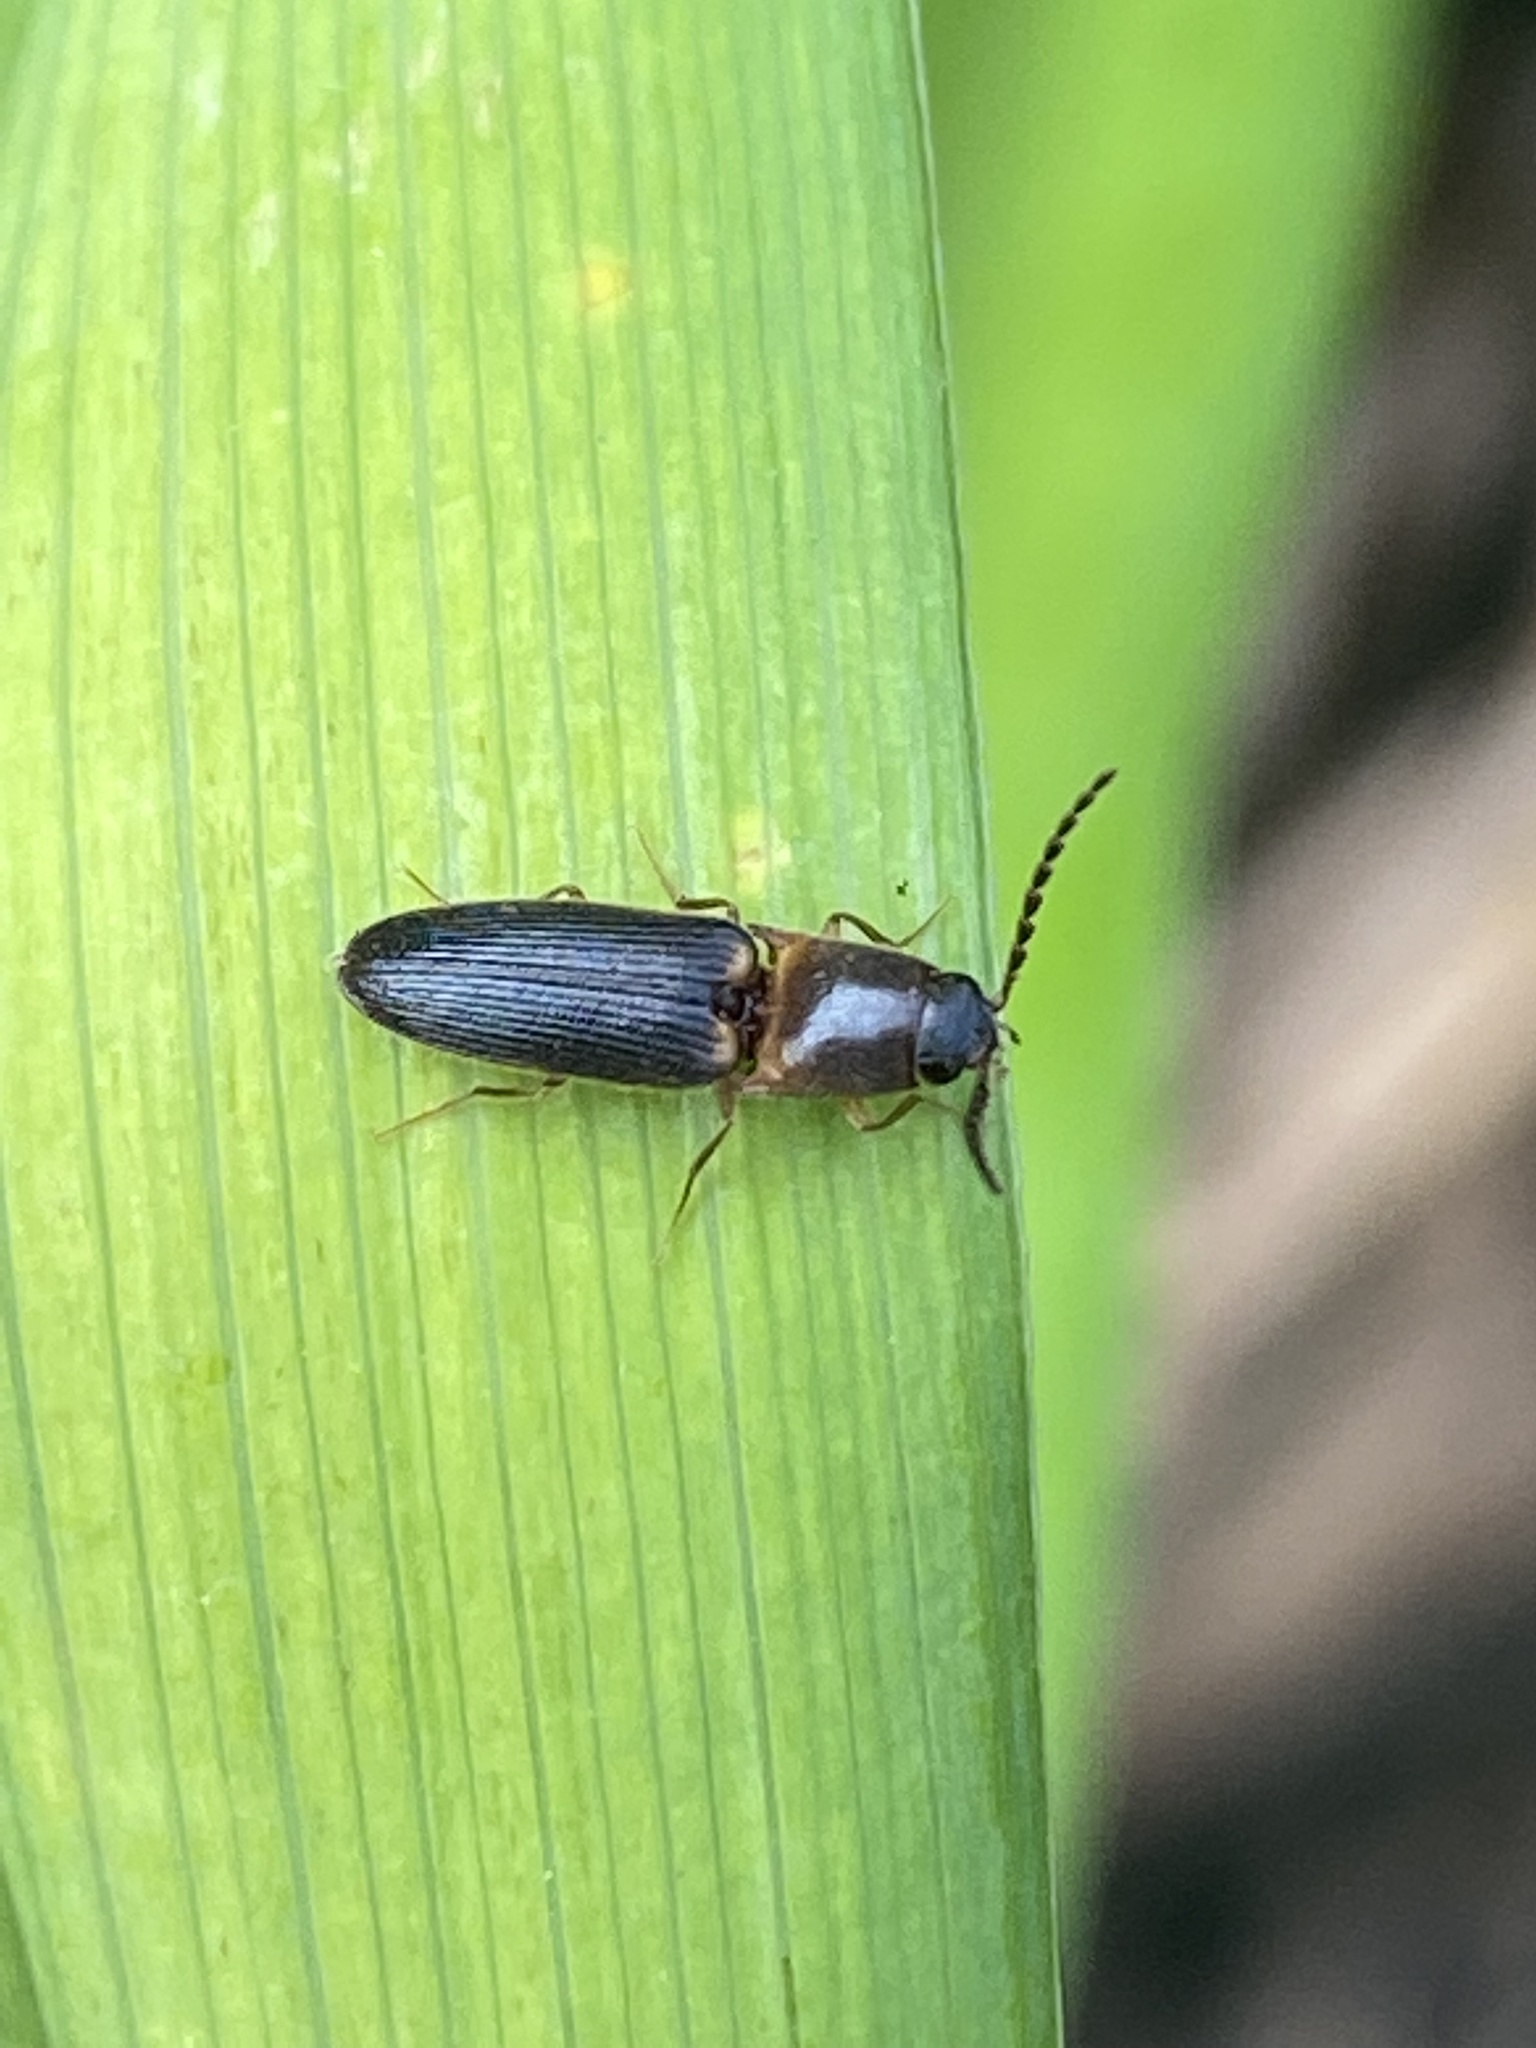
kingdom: Animalia
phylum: Arthropoda
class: Insecta
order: Coleoptera
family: Elateridae
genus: Megapenthes
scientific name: Megapenthes
